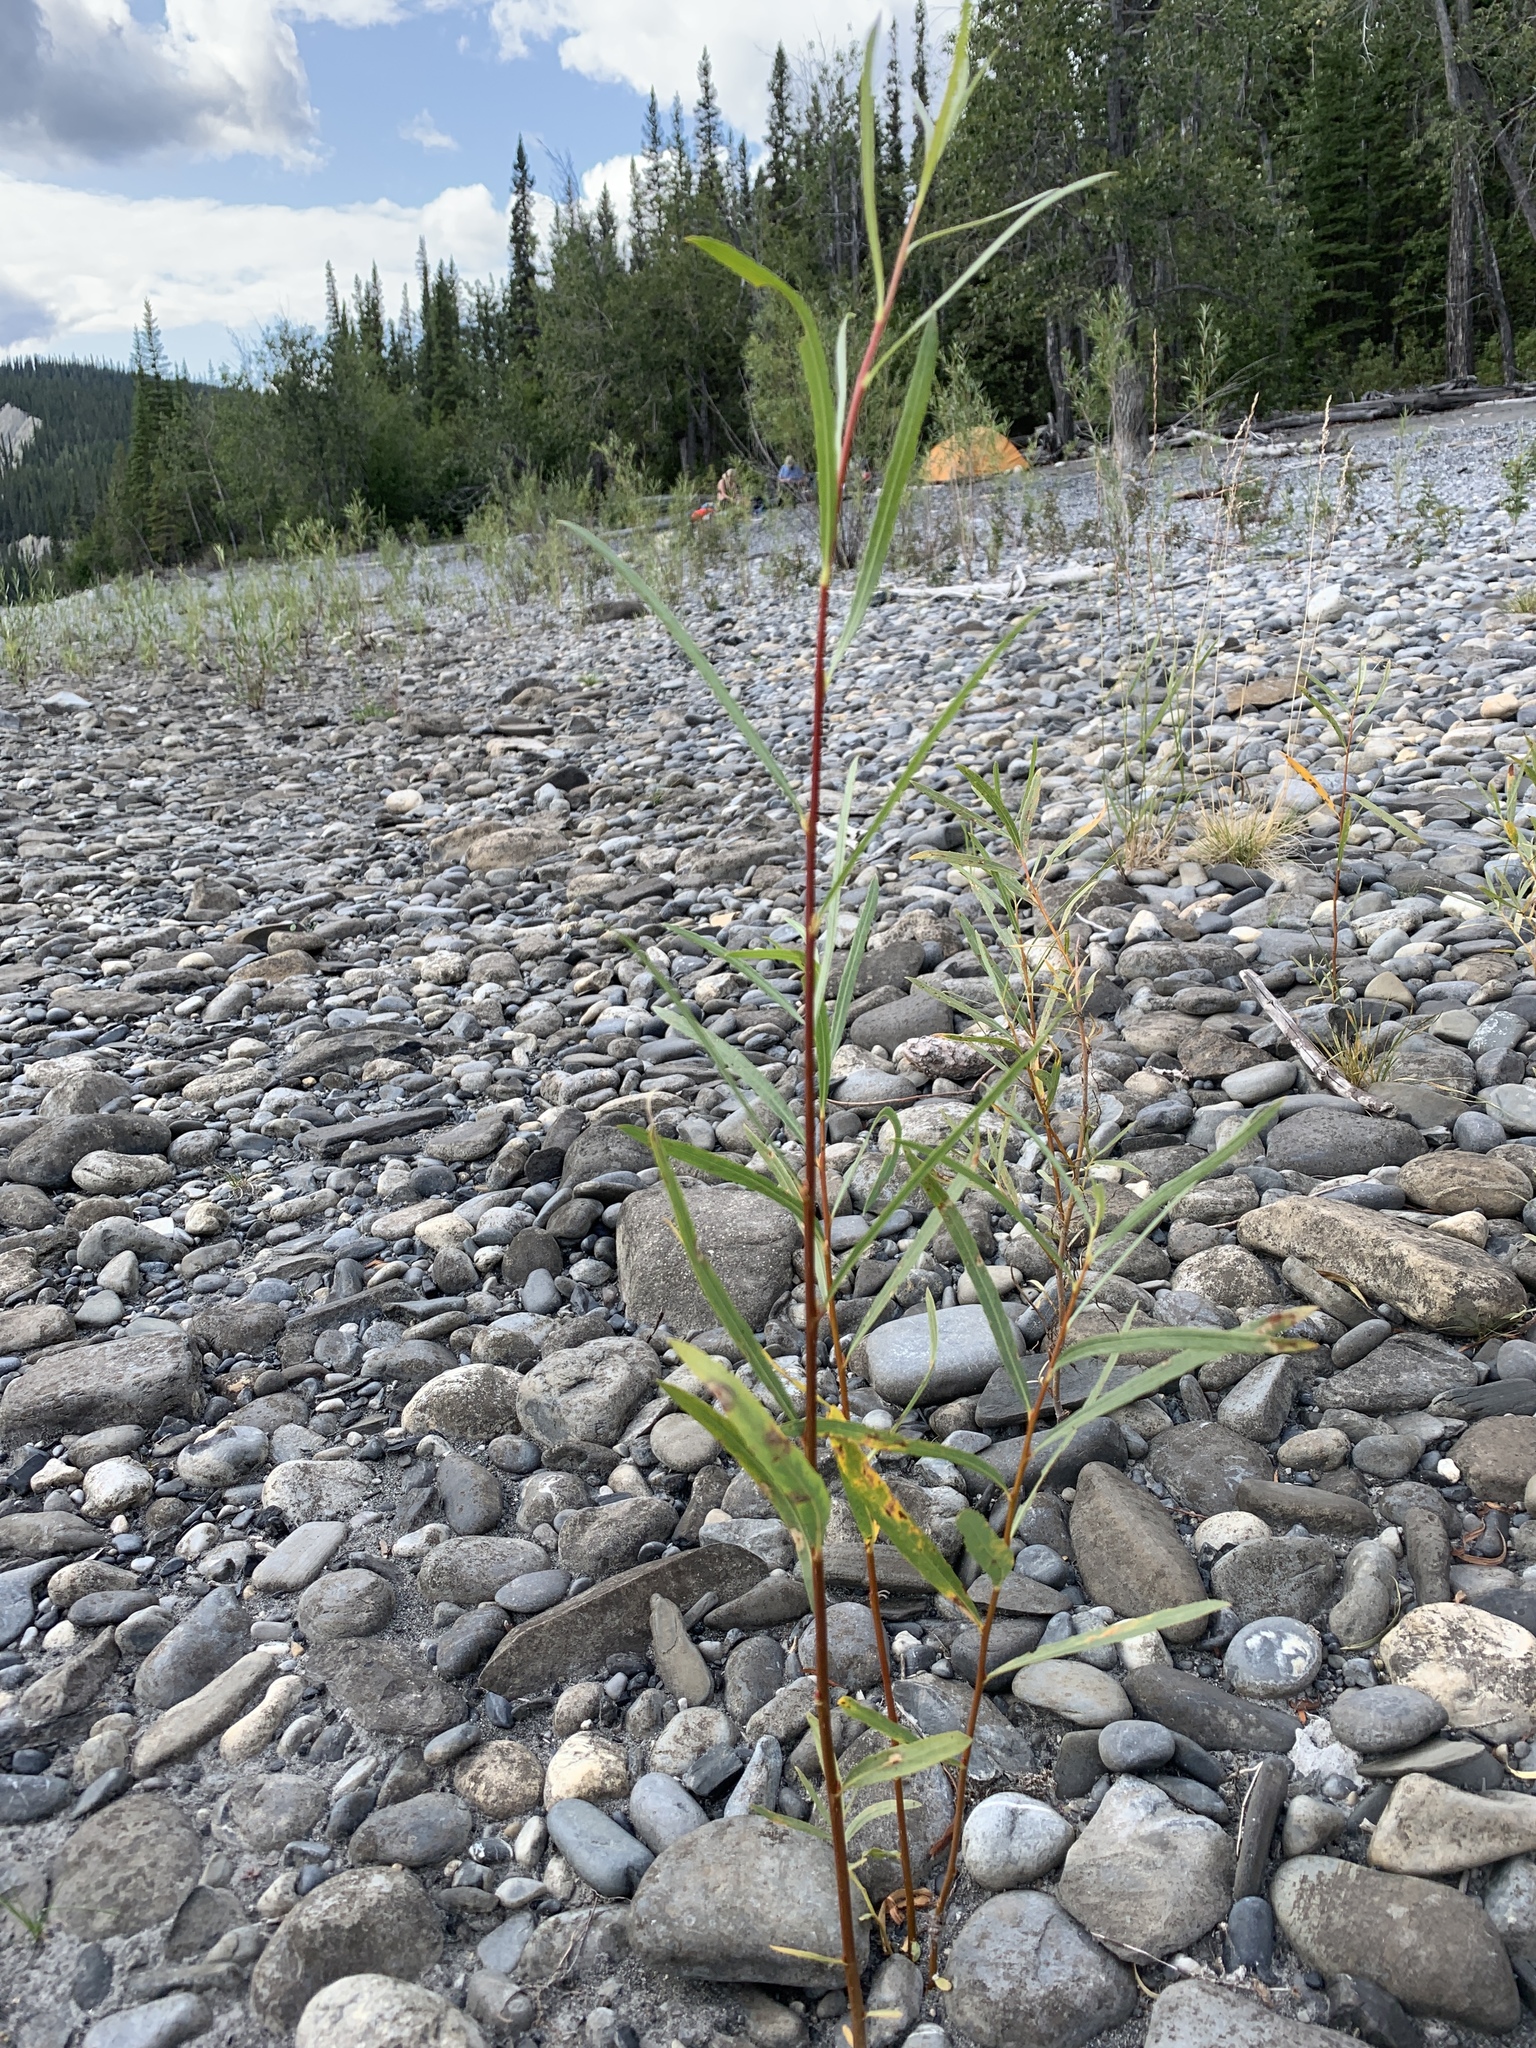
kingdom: Plantae
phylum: Tracheophyta
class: Magnoliopsida
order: Malpighiales
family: Salicaceae
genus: Salix
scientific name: Salix interior
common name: Sandbar willow
